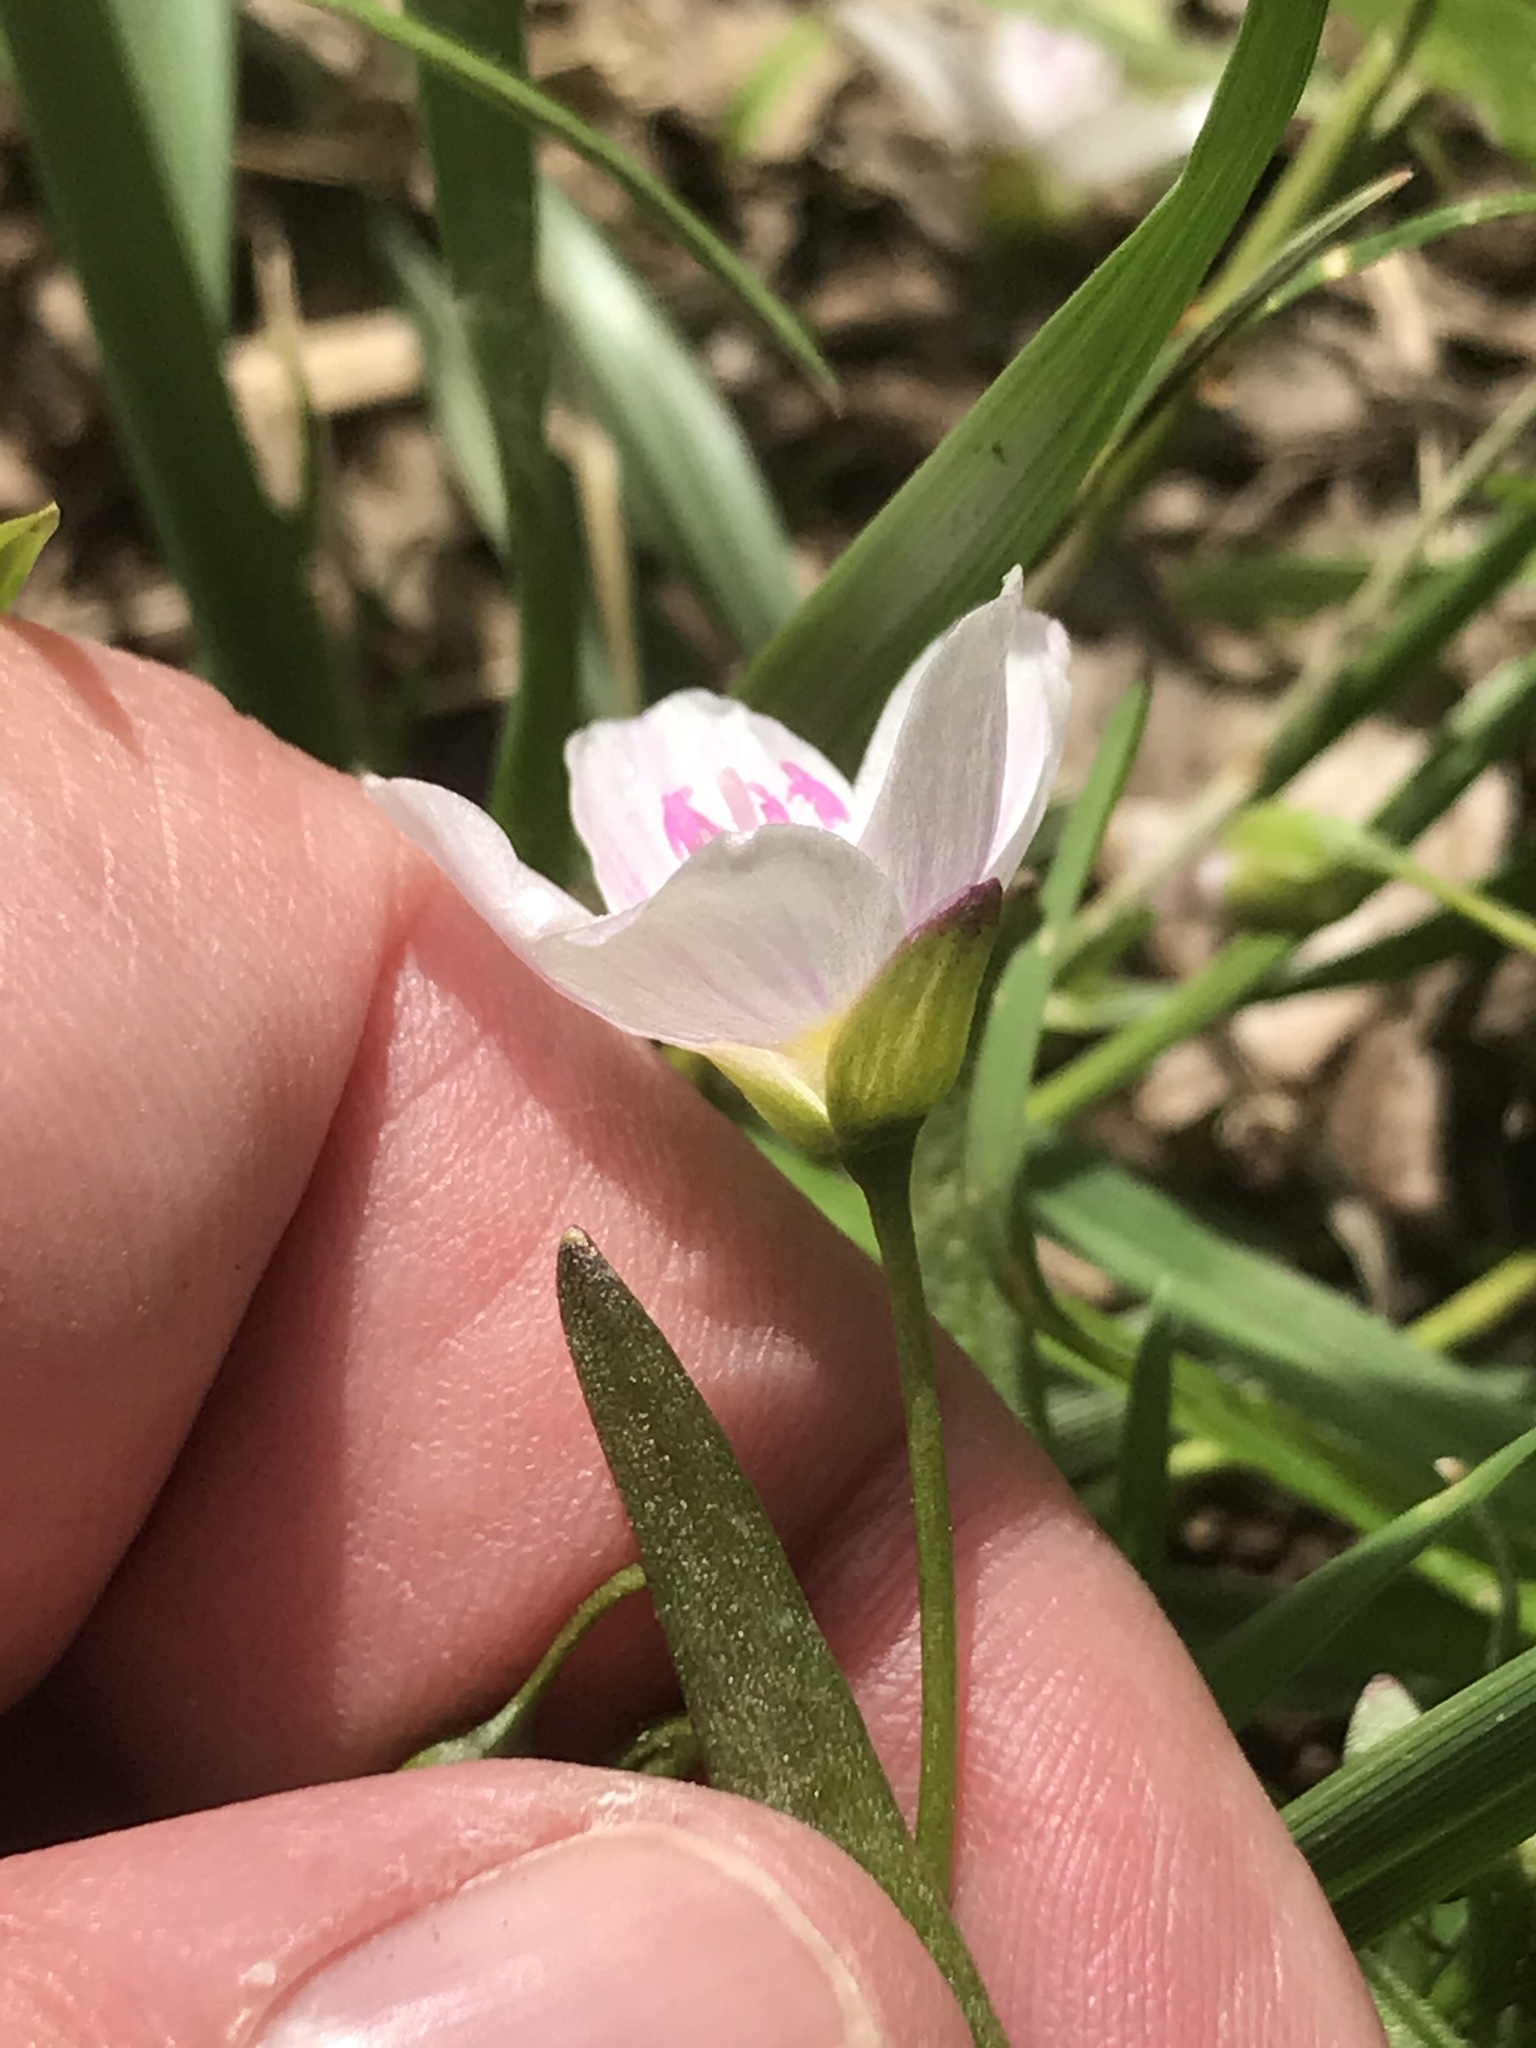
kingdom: Plantae
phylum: Tracheophyta
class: Magnoliopsida
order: Caryophyllales
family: Montiaceae
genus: Claytonia
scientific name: Claytonia virginica
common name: Virginia springbeauty
